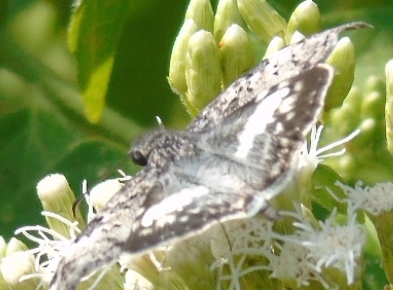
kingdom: Animalia
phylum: Arthropoda
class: Insecta
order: Lepidoptera
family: Hesperiidae
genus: Chiothion
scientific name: Chiothion georgina
